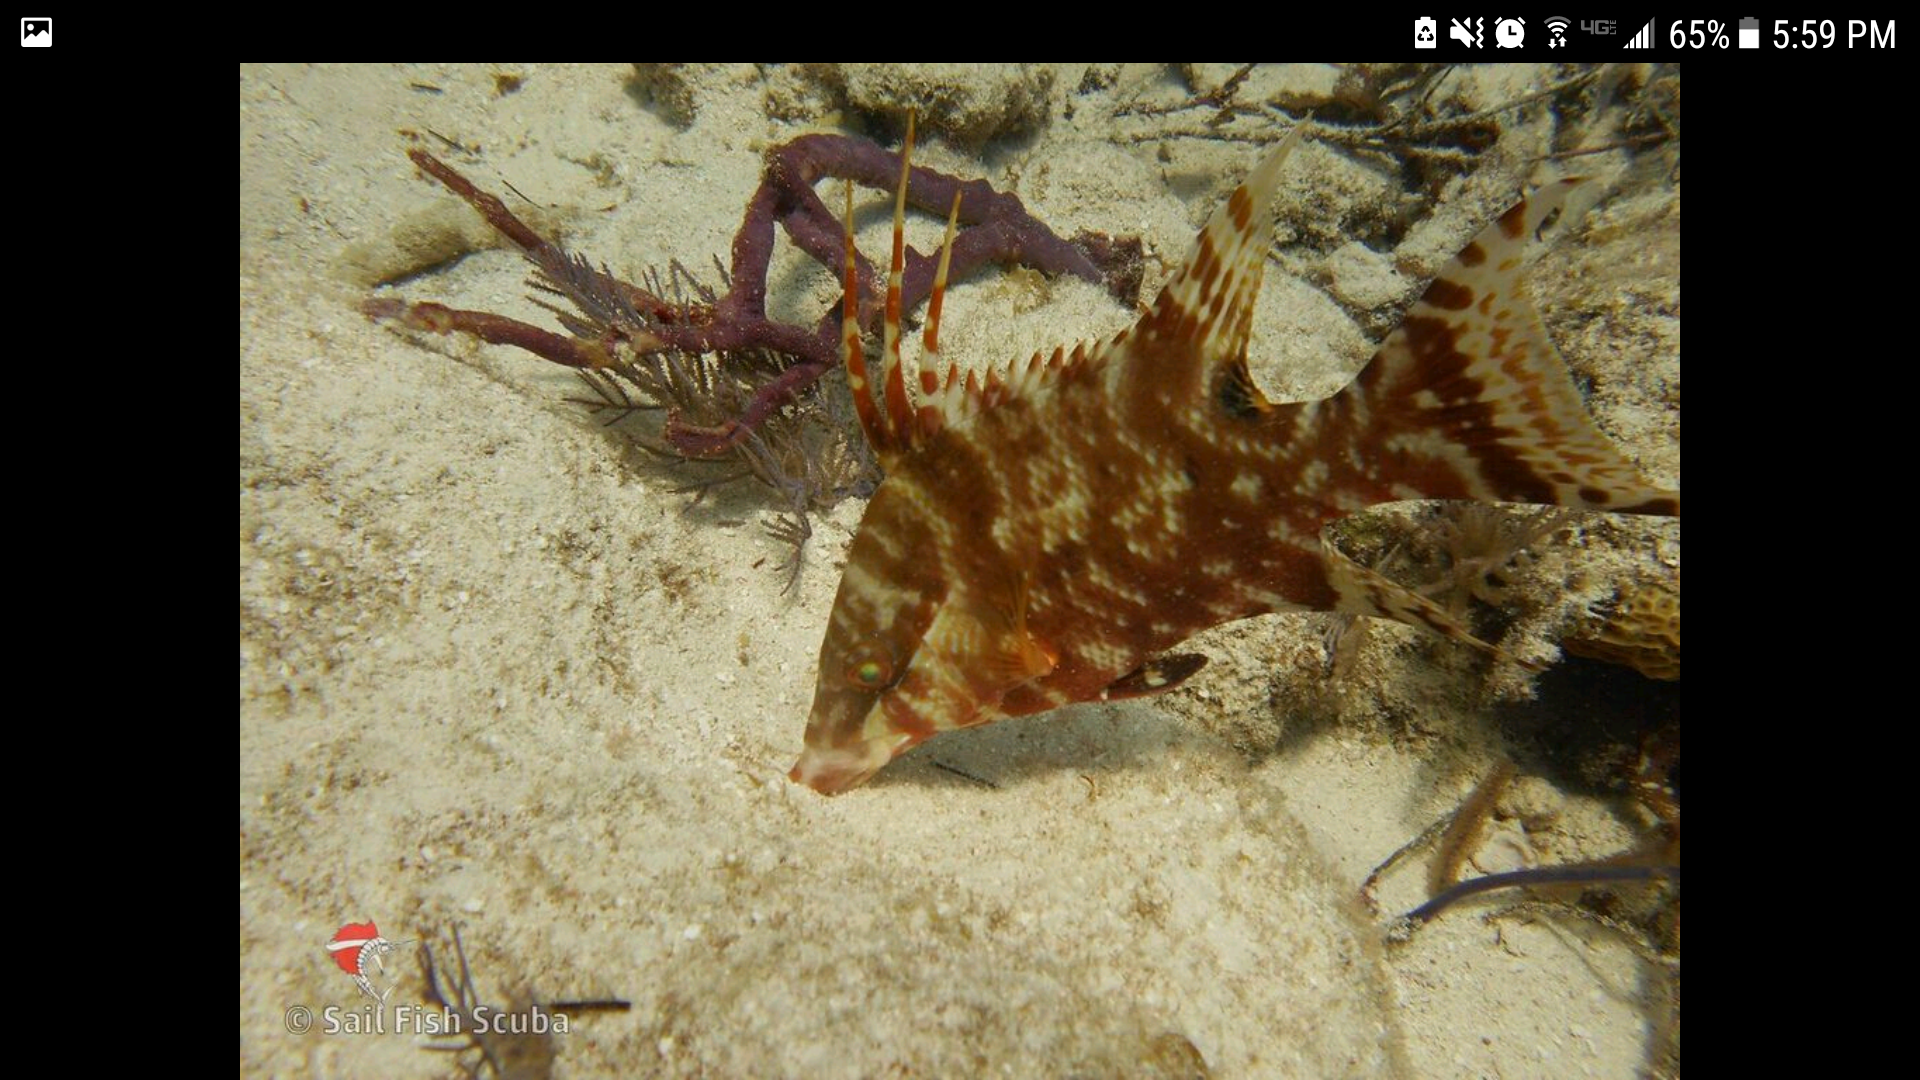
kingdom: Animalia
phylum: Chordata
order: Perciformes
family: Labridae
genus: Lachnolaimus
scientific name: Lachnolaimus maximus
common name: Hogfish
